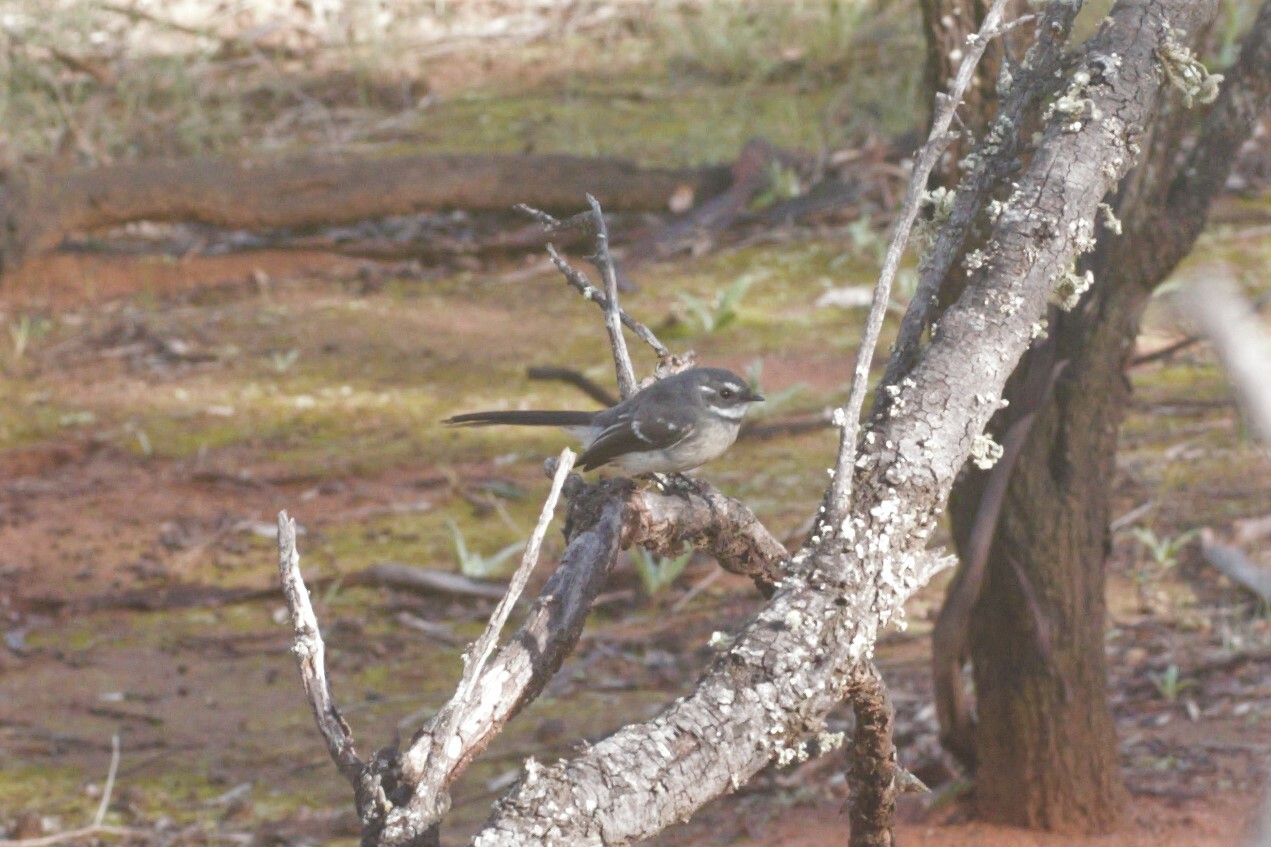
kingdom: Animalia
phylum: Chordata
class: Aves
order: Passeriformes
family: Rhipiduridae
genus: Rhipidura
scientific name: Rhipidura albiscapa
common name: Grey fantail
